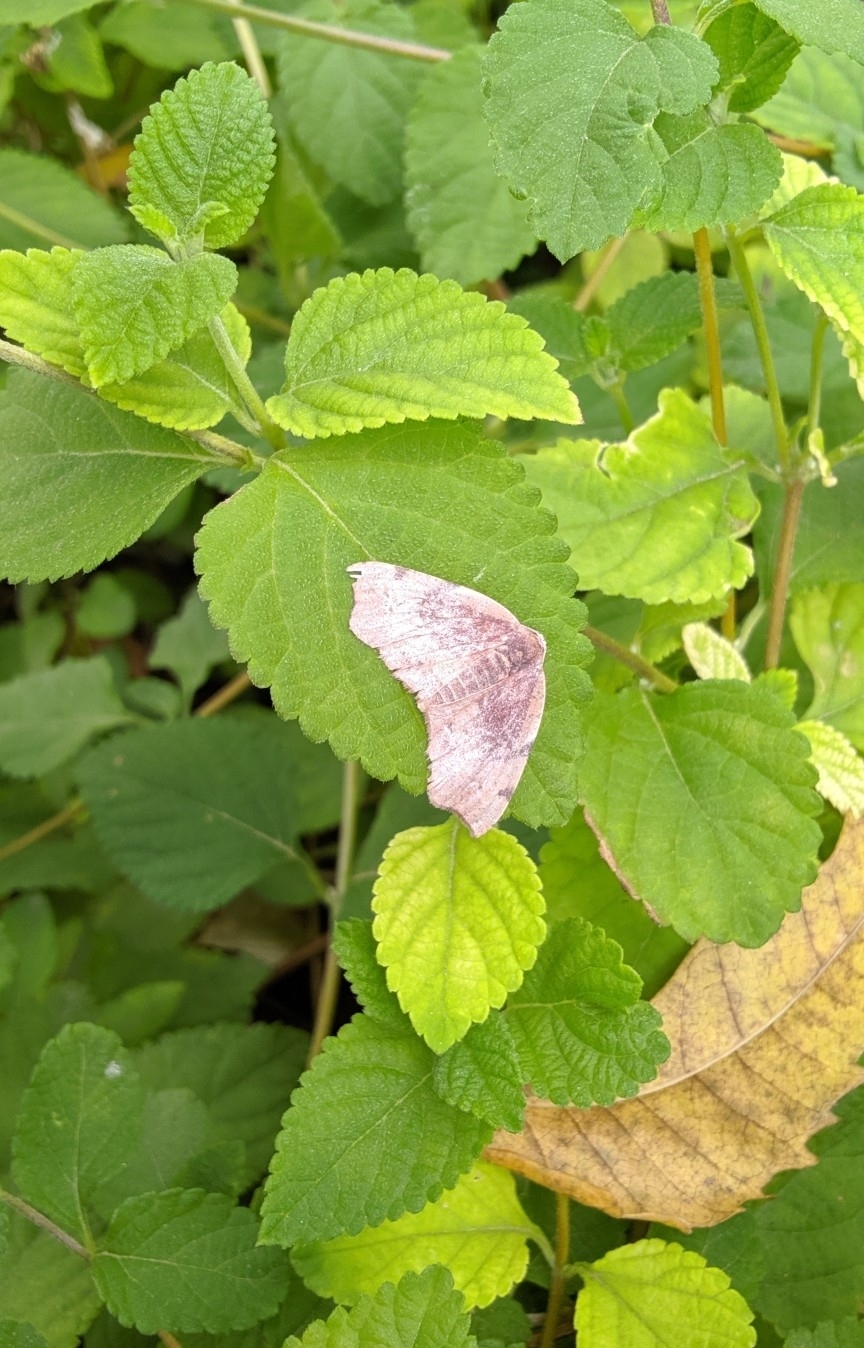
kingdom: Animalia
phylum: Arthropoda
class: Insecta
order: Lepidoptera
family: Geometridae
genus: Achrosis
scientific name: Achrosis rondelaria
